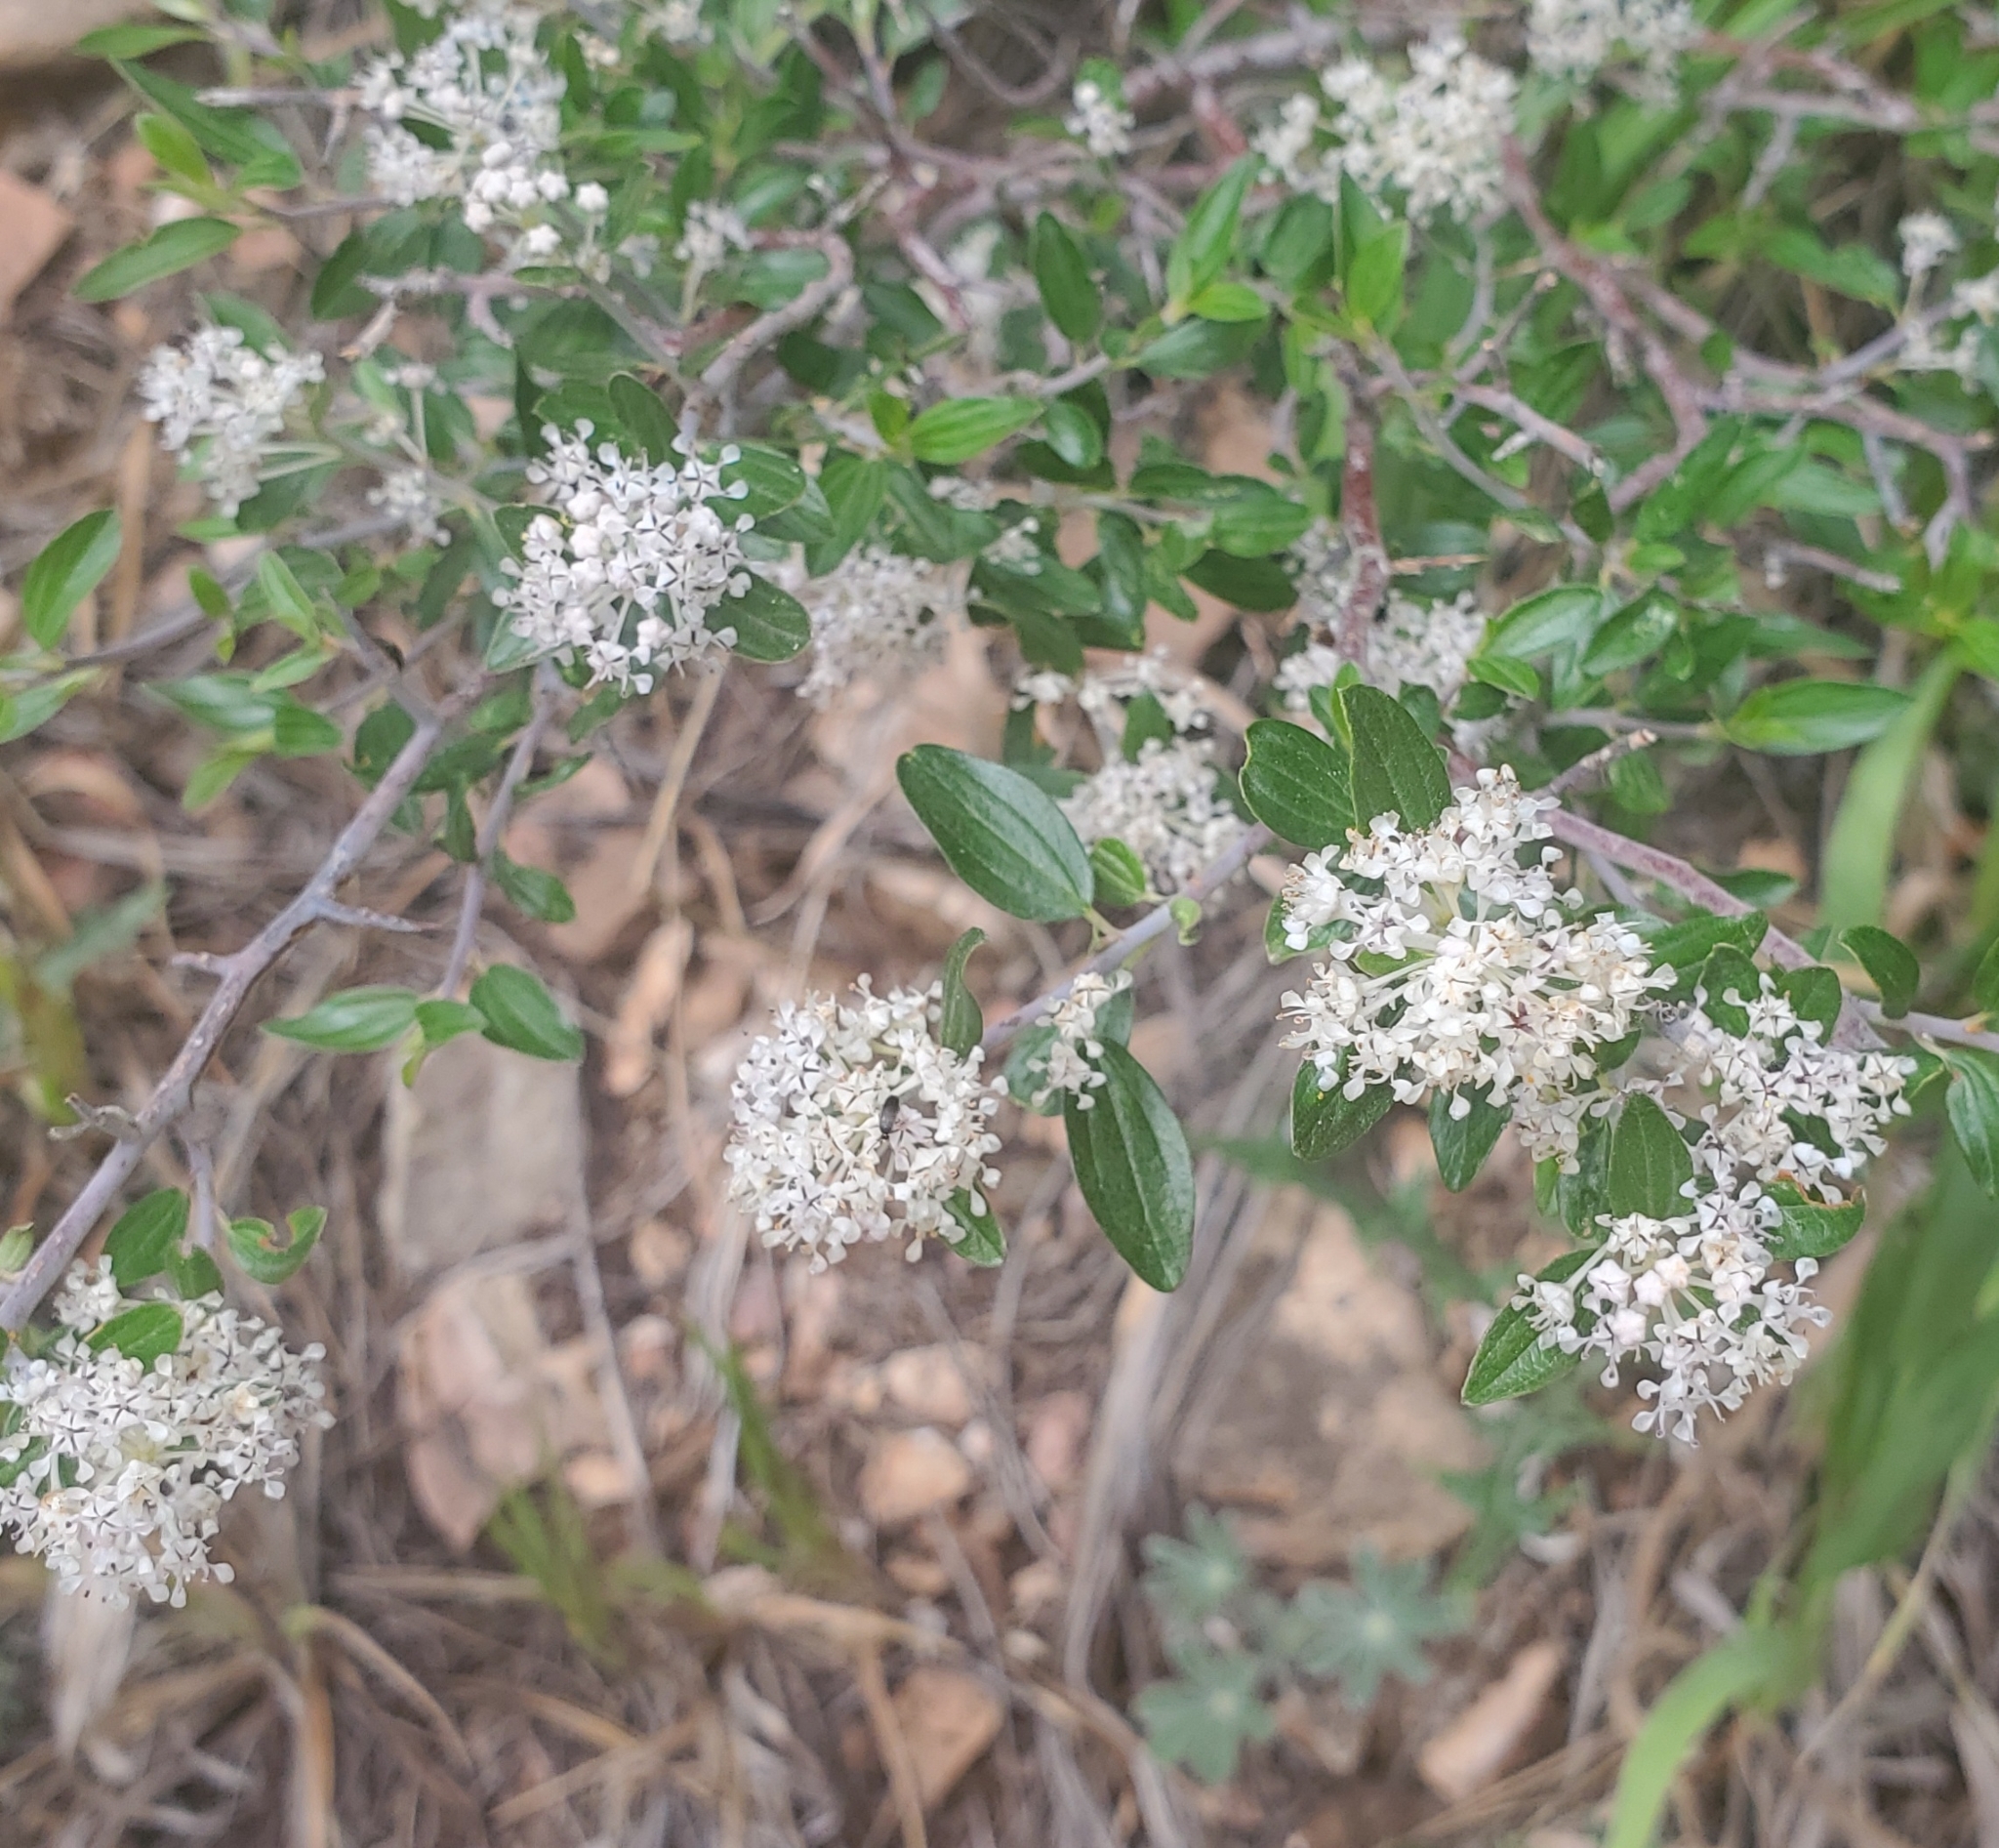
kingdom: Plantae
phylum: Tracheophyta
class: Magnoliopsida
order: Rosales
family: Rhamnaceae
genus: Ceanothus
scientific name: Ceanothus fendleri
